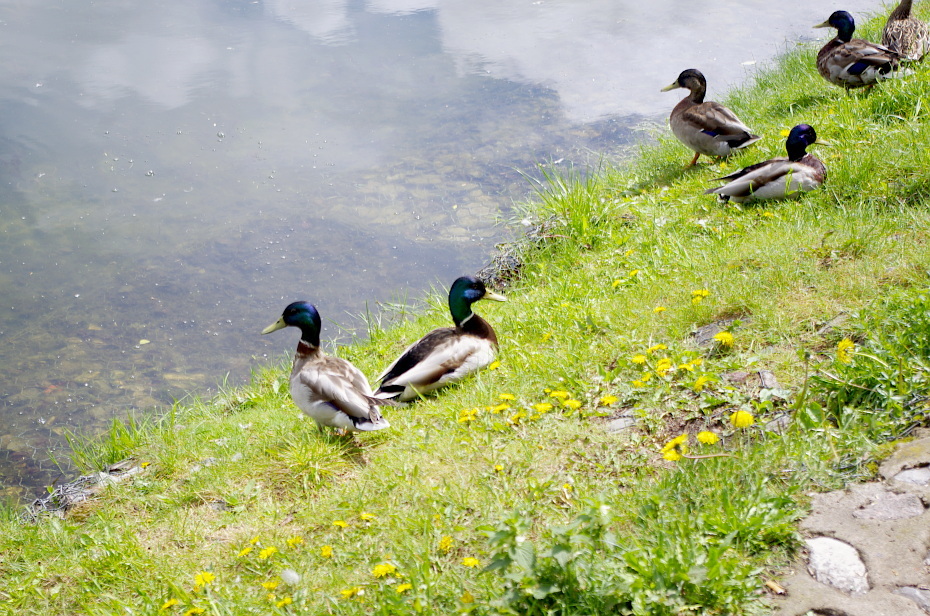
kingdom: Animalia
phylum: Chordata
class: Aves
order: Anseriformes
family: Anatidae
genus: Anas
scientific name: Anas platyrhynchos
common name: Mallard
